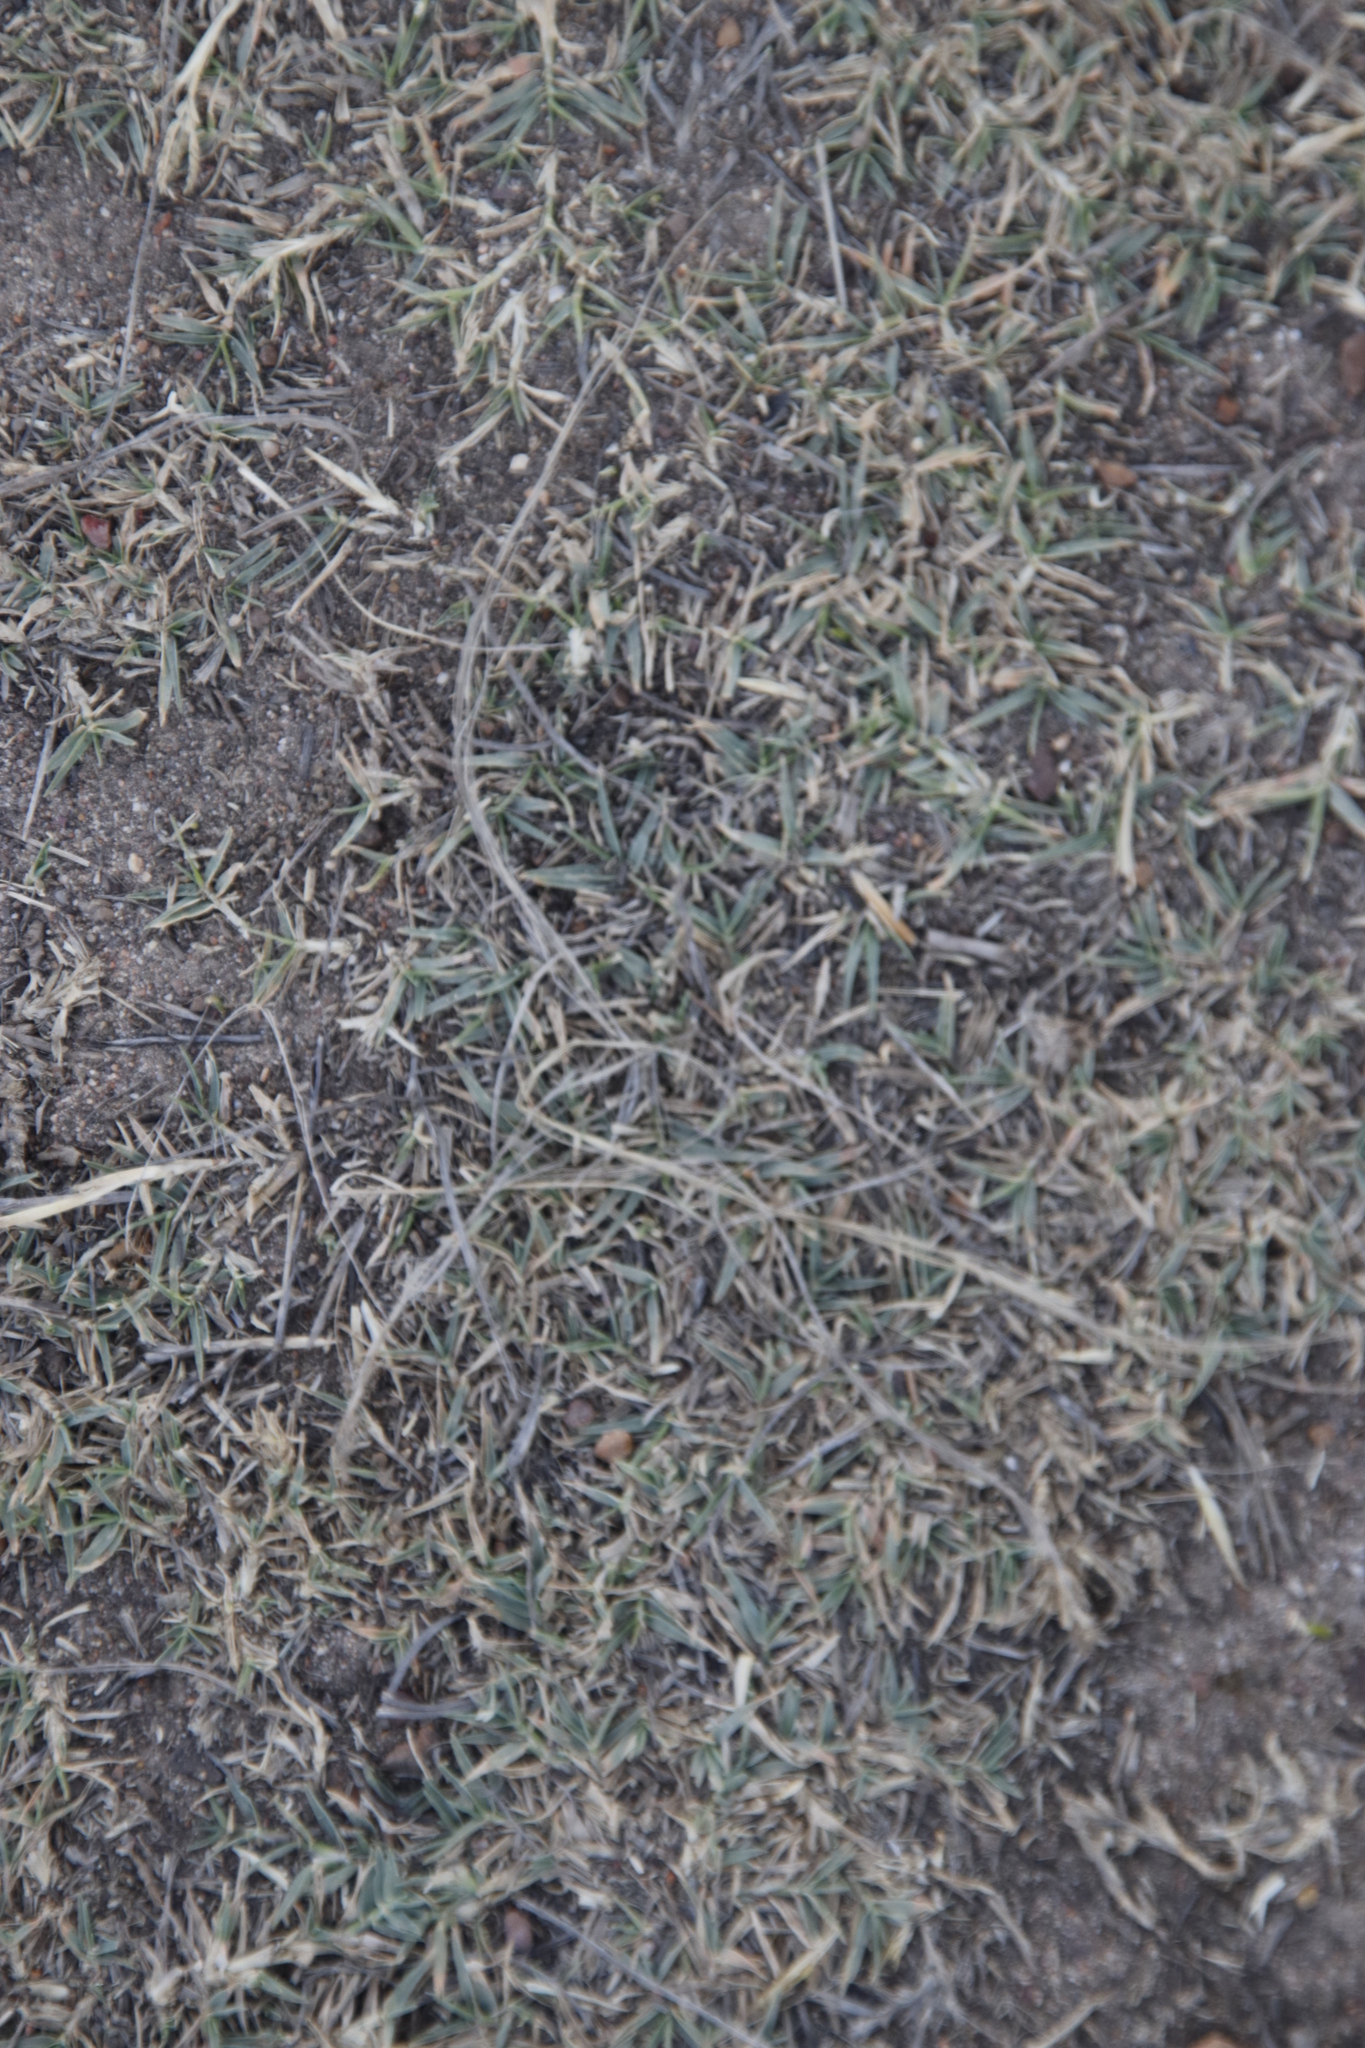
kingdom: Plantae
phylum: Tracheophyta
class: Liliopsida
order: Poales
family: Poaceae
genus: Cynodon
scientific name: Cynodon dactylon
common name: Bermuda grass
